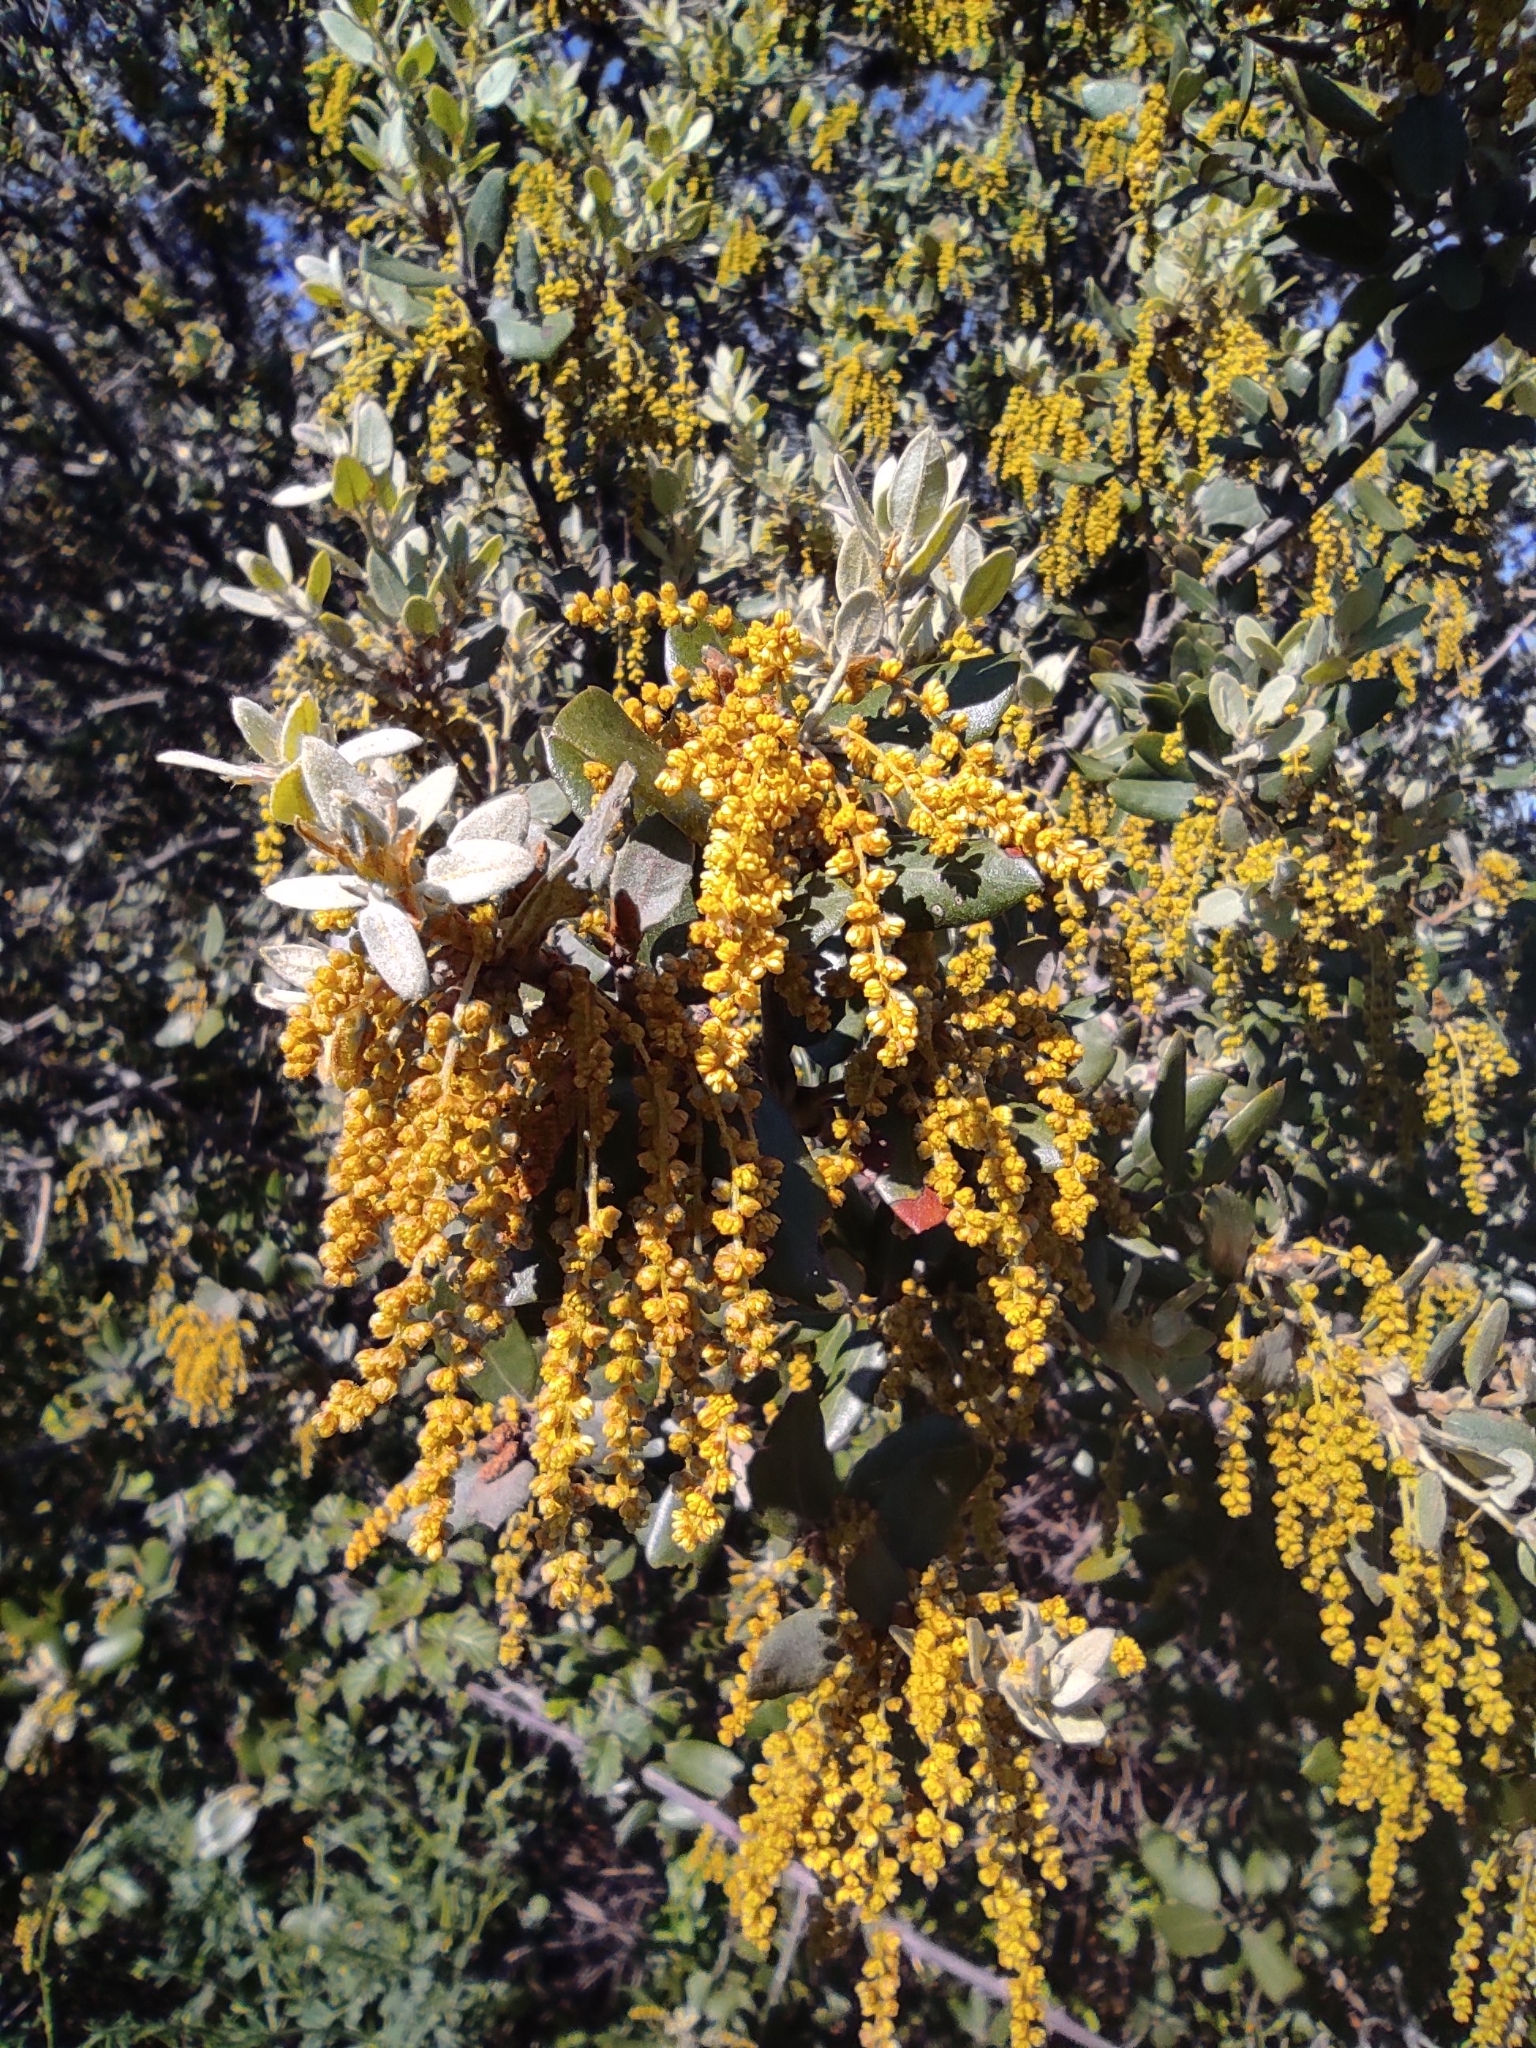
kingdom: Plantae
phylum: Tracheophyta
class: Magnoliopsida
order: Fagales
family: Fagaceae
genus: Quercus
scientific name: Quercus rotundifolia
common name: Holm oak
